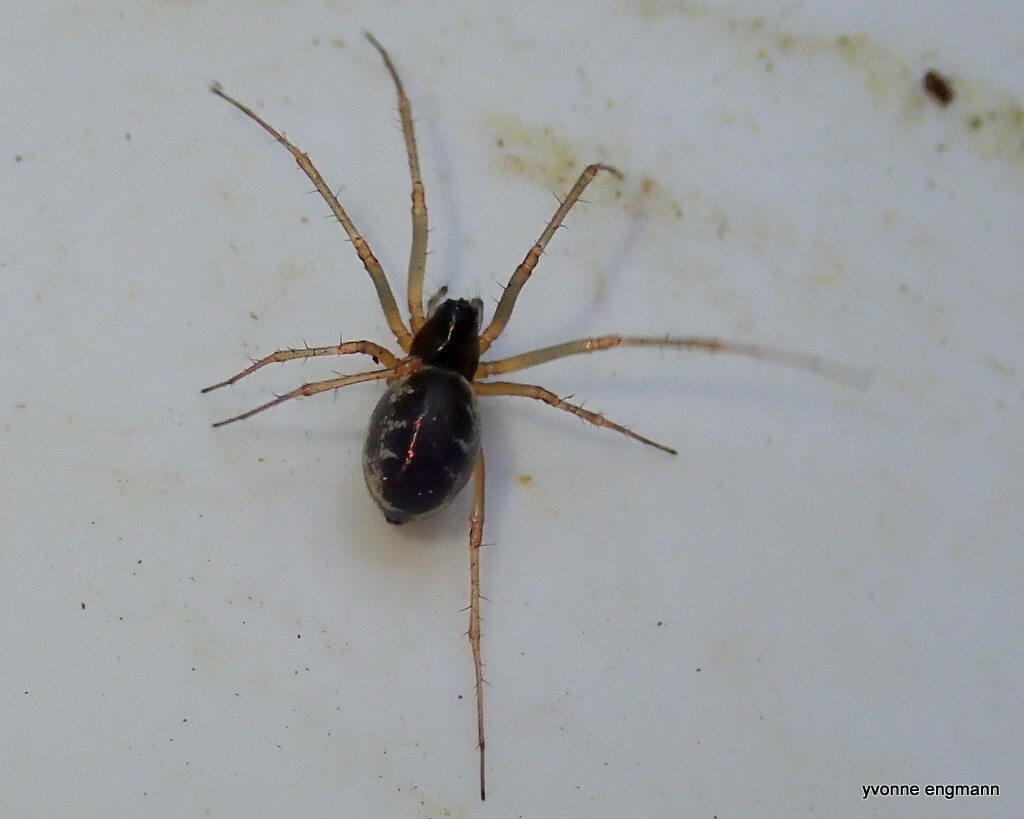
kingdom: Animalia
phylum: Arthropoda
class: Arachnida
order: Araneae
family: Linyphiidae
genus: Linyphia
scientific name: Linyphia hortensis
